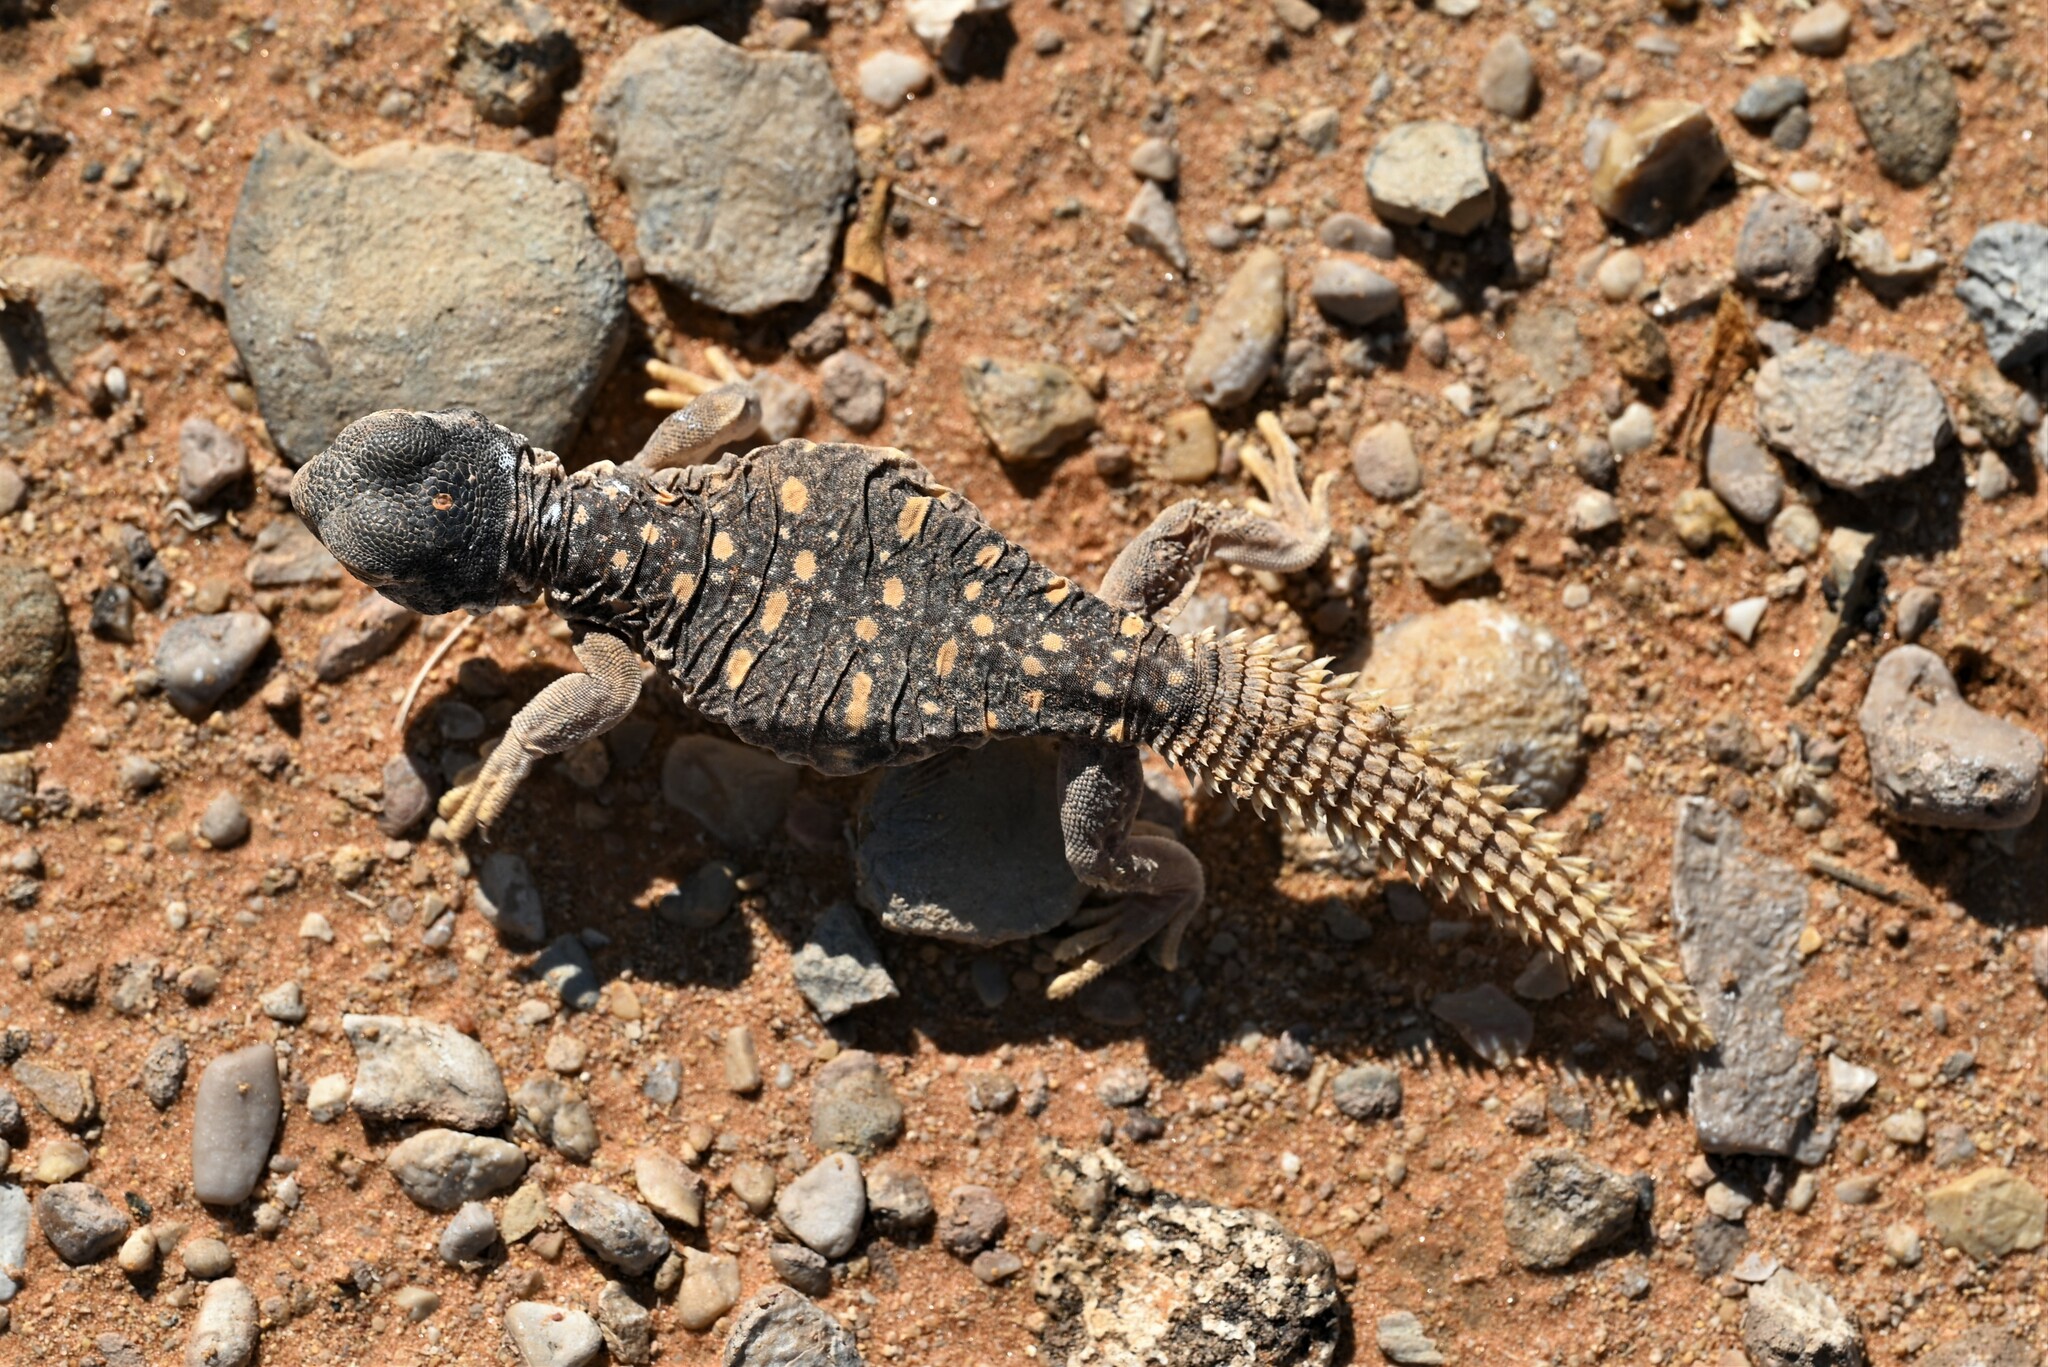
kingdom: Animalia
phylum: Chordata
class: Squamata
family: Agamidae
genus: Uromastyx
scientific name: Uromastyx aegyptia
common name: Egyptian mastigure
